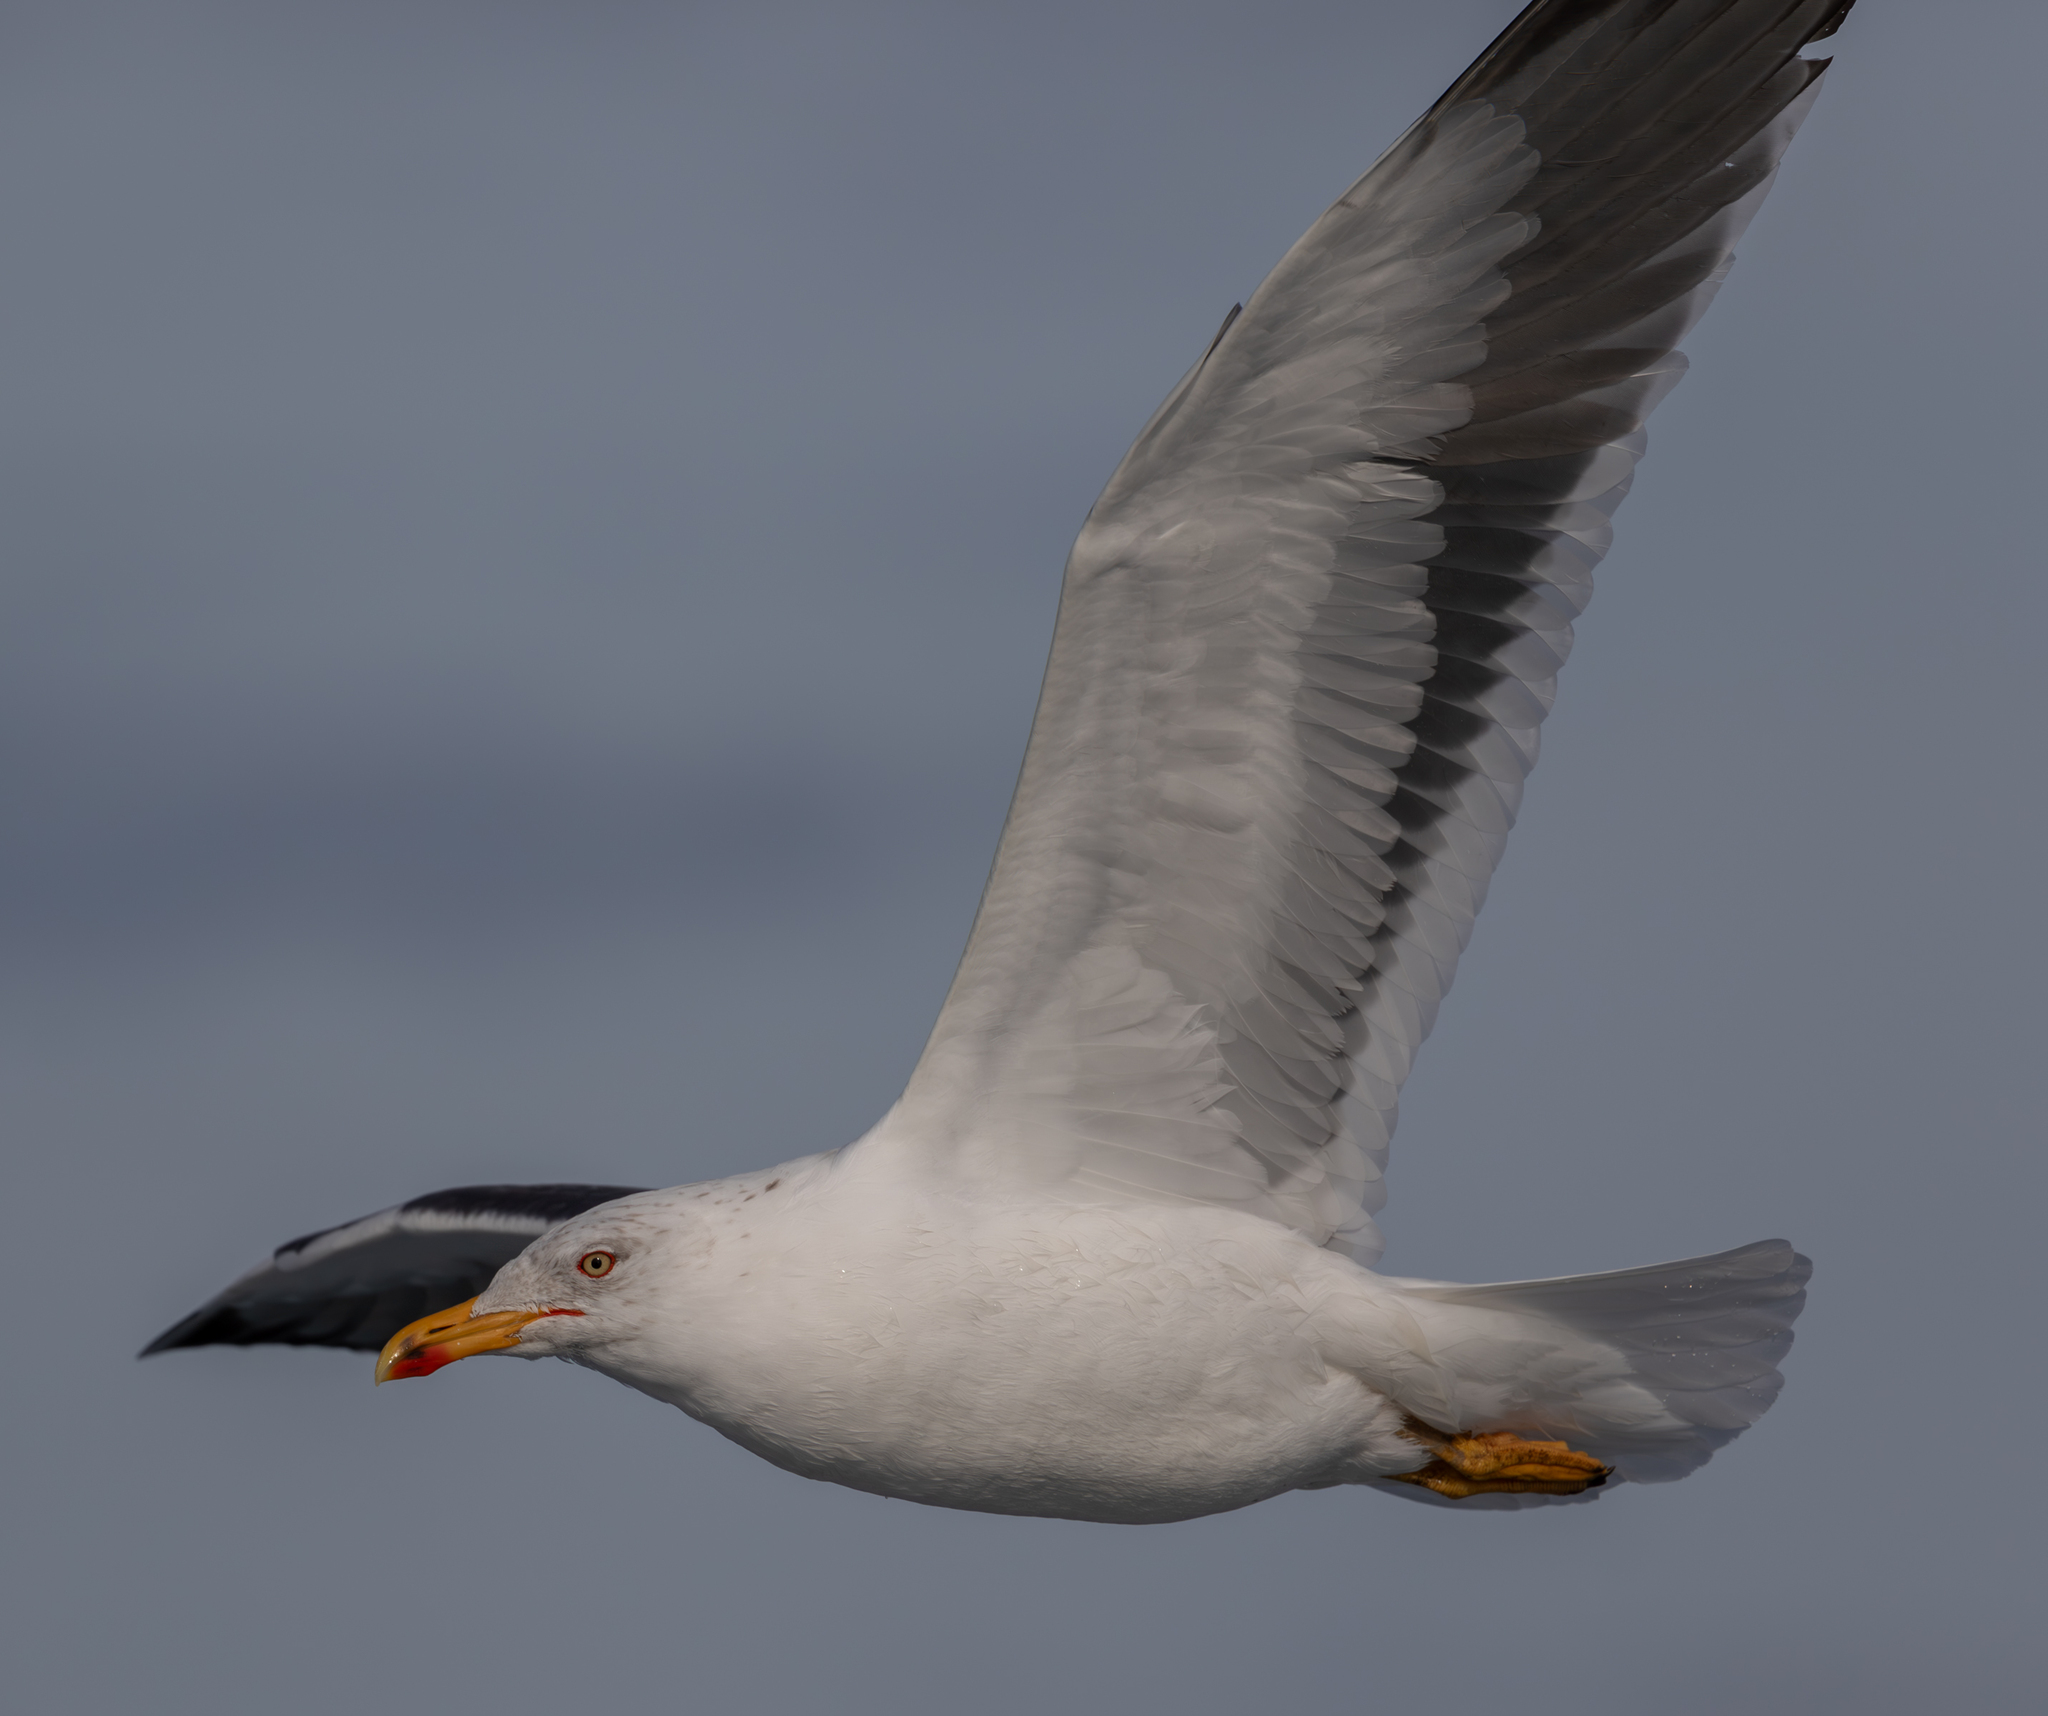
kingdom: Animalia
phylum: Chordata
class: Aves
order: Charadriiformes
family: Laridae
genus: Larus
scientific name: Larus fuscus
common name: Lesser black-backed gull
